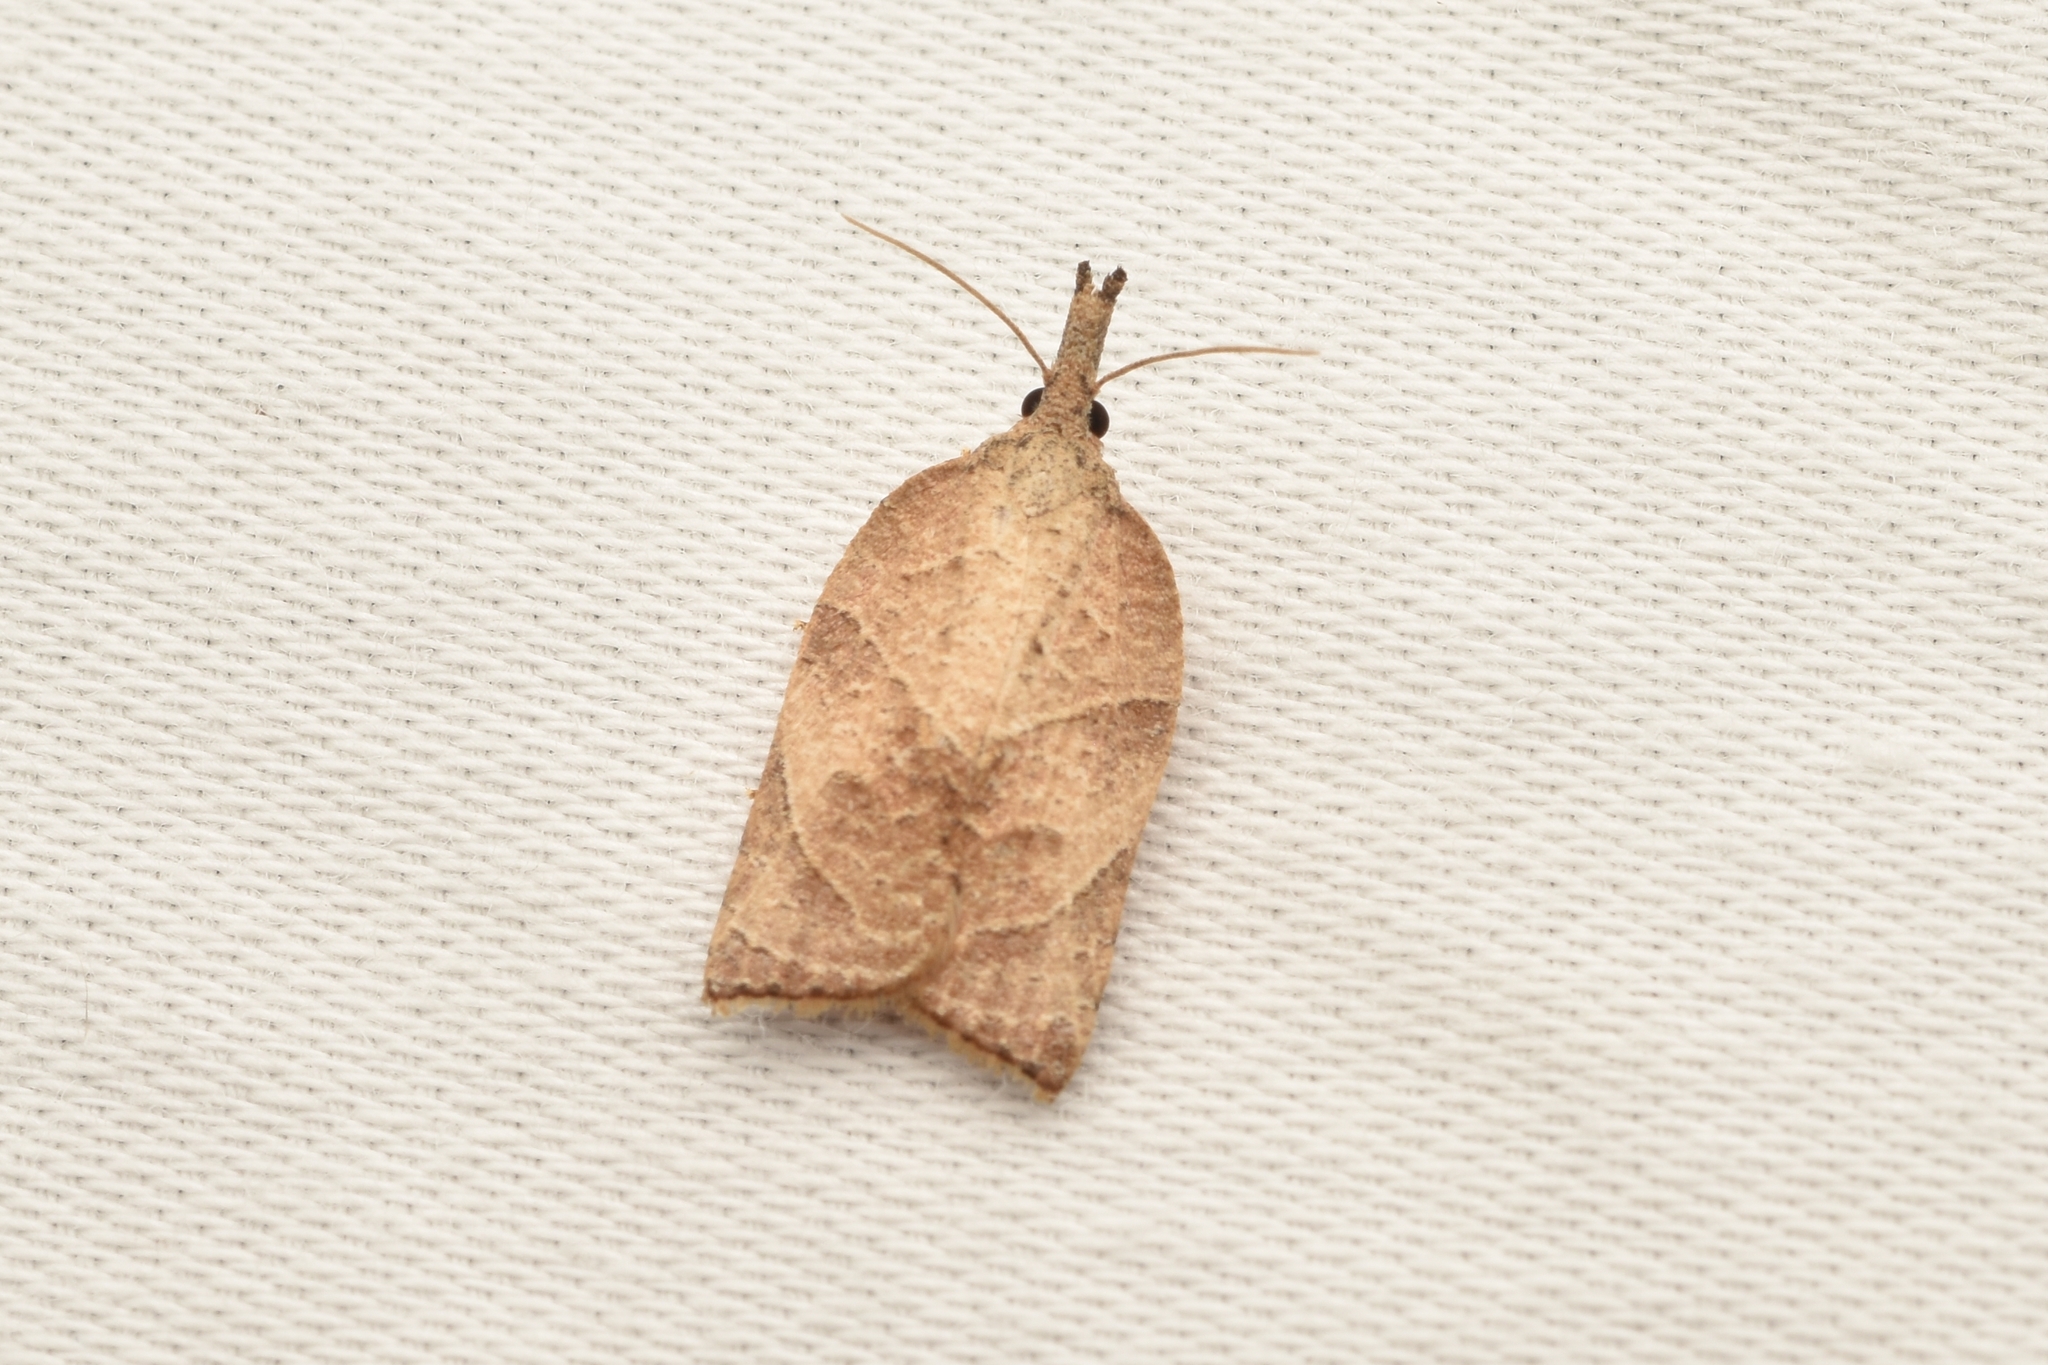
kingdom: Animalia
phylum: Arthropoda
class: Insecta
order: Lepidoptera
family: Tortricidae
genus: Platynota
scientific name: Platynota rostrana
